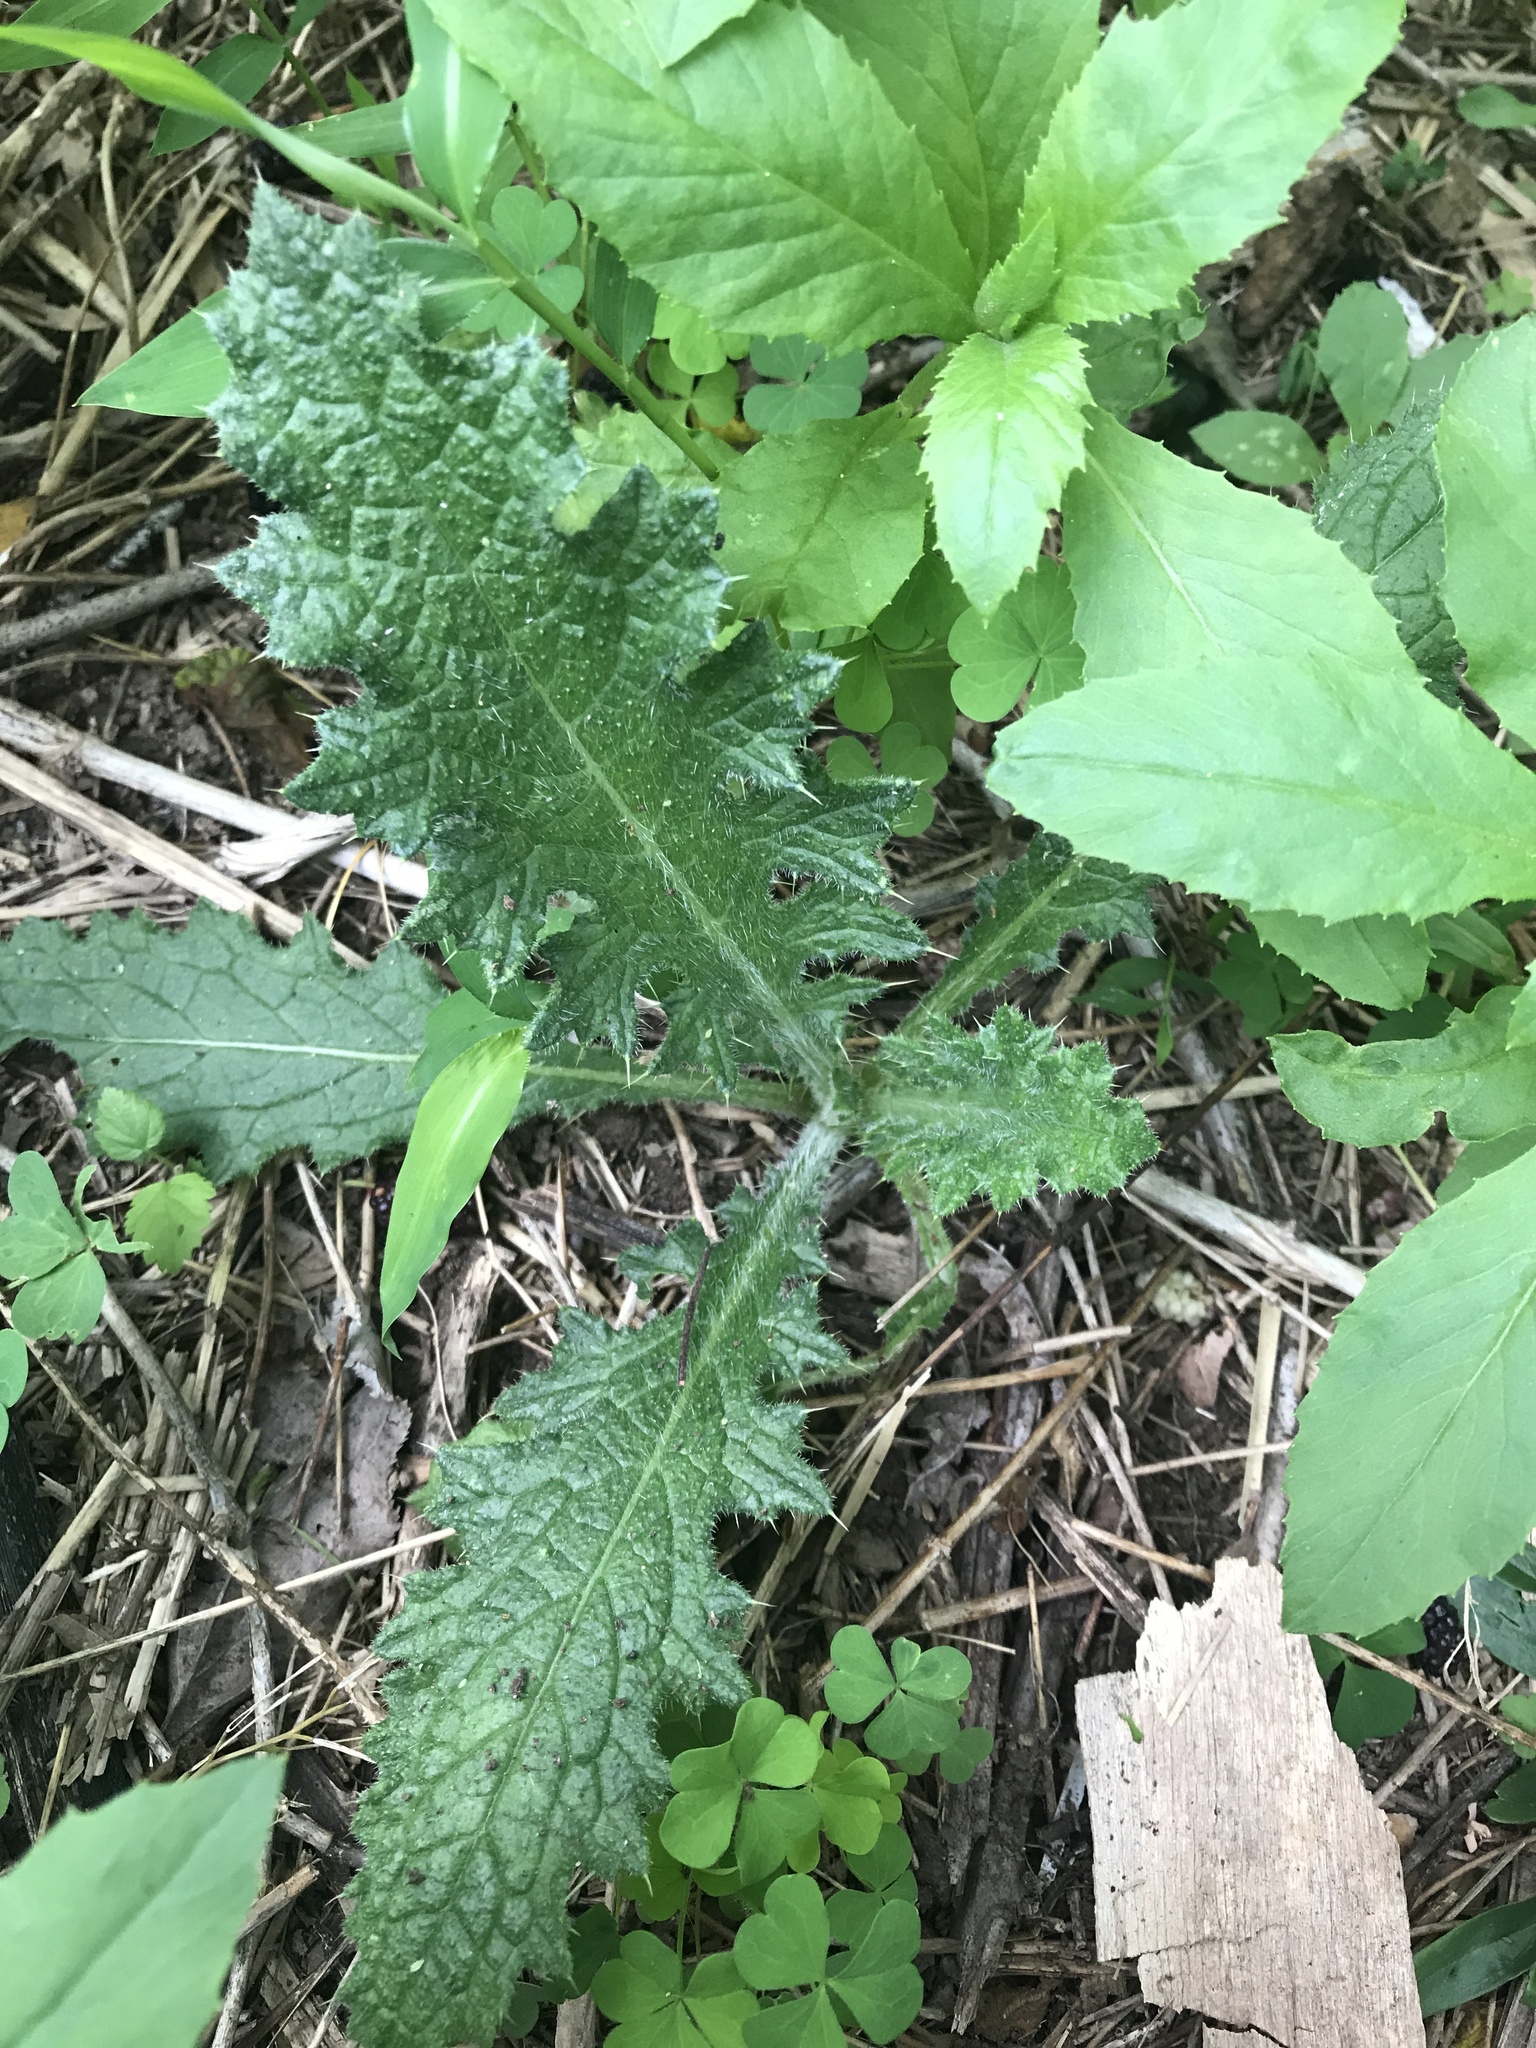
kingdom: Plantae
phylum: Tracheophyta
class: Magnoliopsida
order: Asterales
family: Asteraceae
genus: Cirsium
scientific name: Cirsium vulgare
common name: Bull thistle
